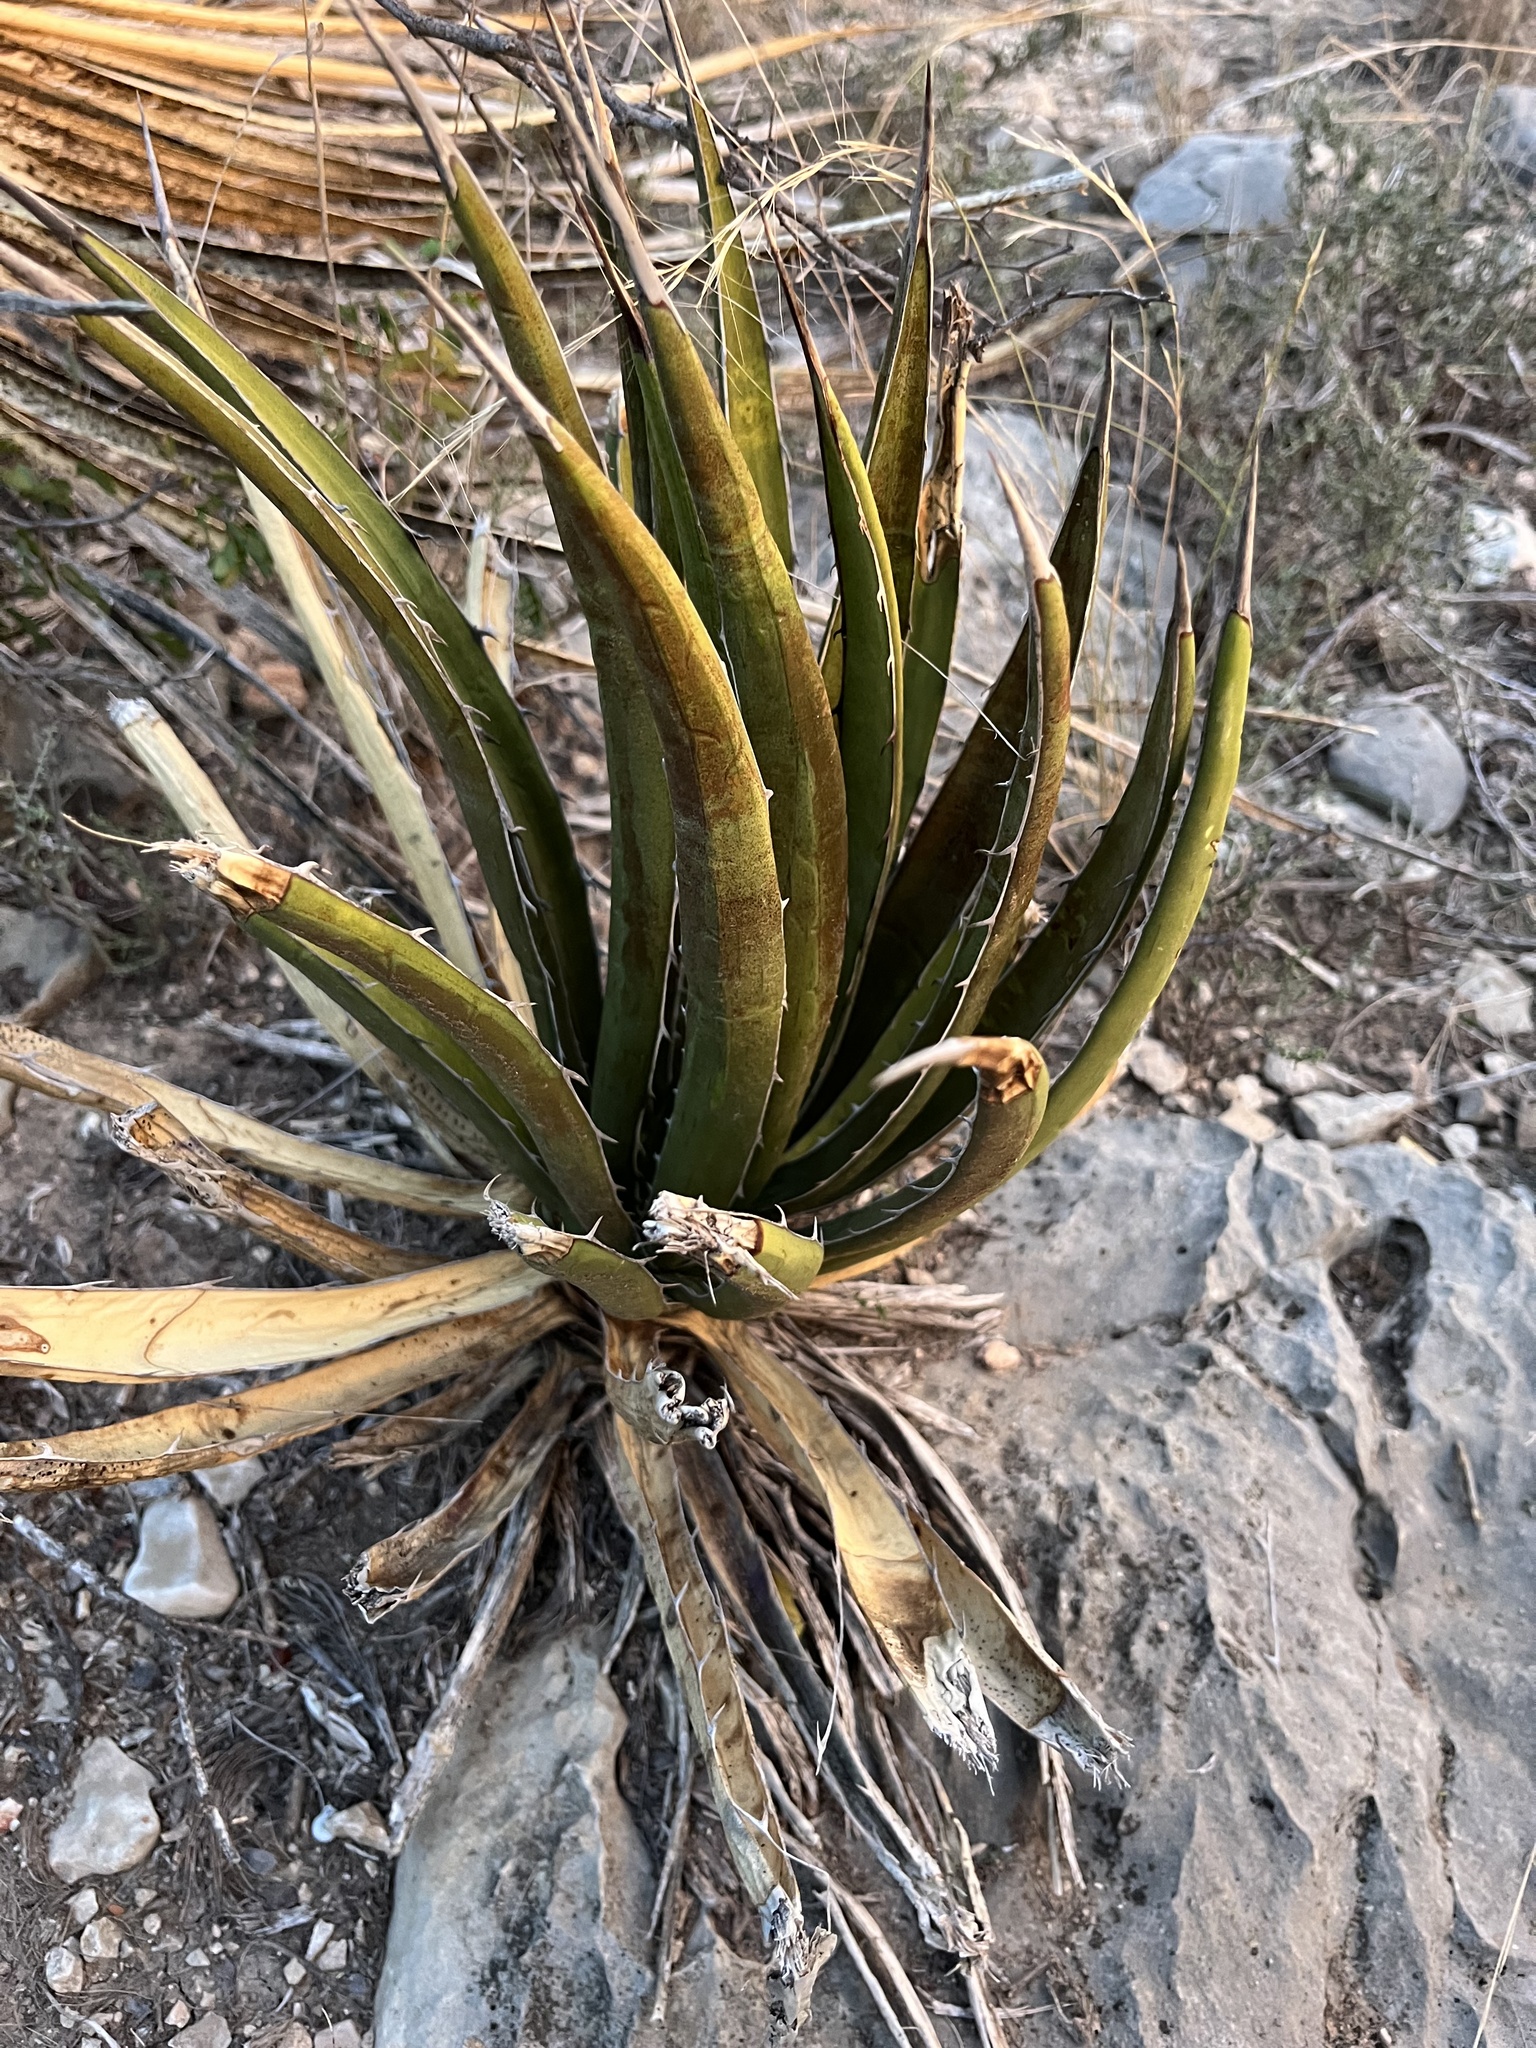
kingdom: Plantae
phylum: Tracheophyta
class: Liliopsida
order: Asparagales
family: Asparagaceae
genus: Agave
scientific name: Agave lechuguilla
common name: Lecheguilla agave
